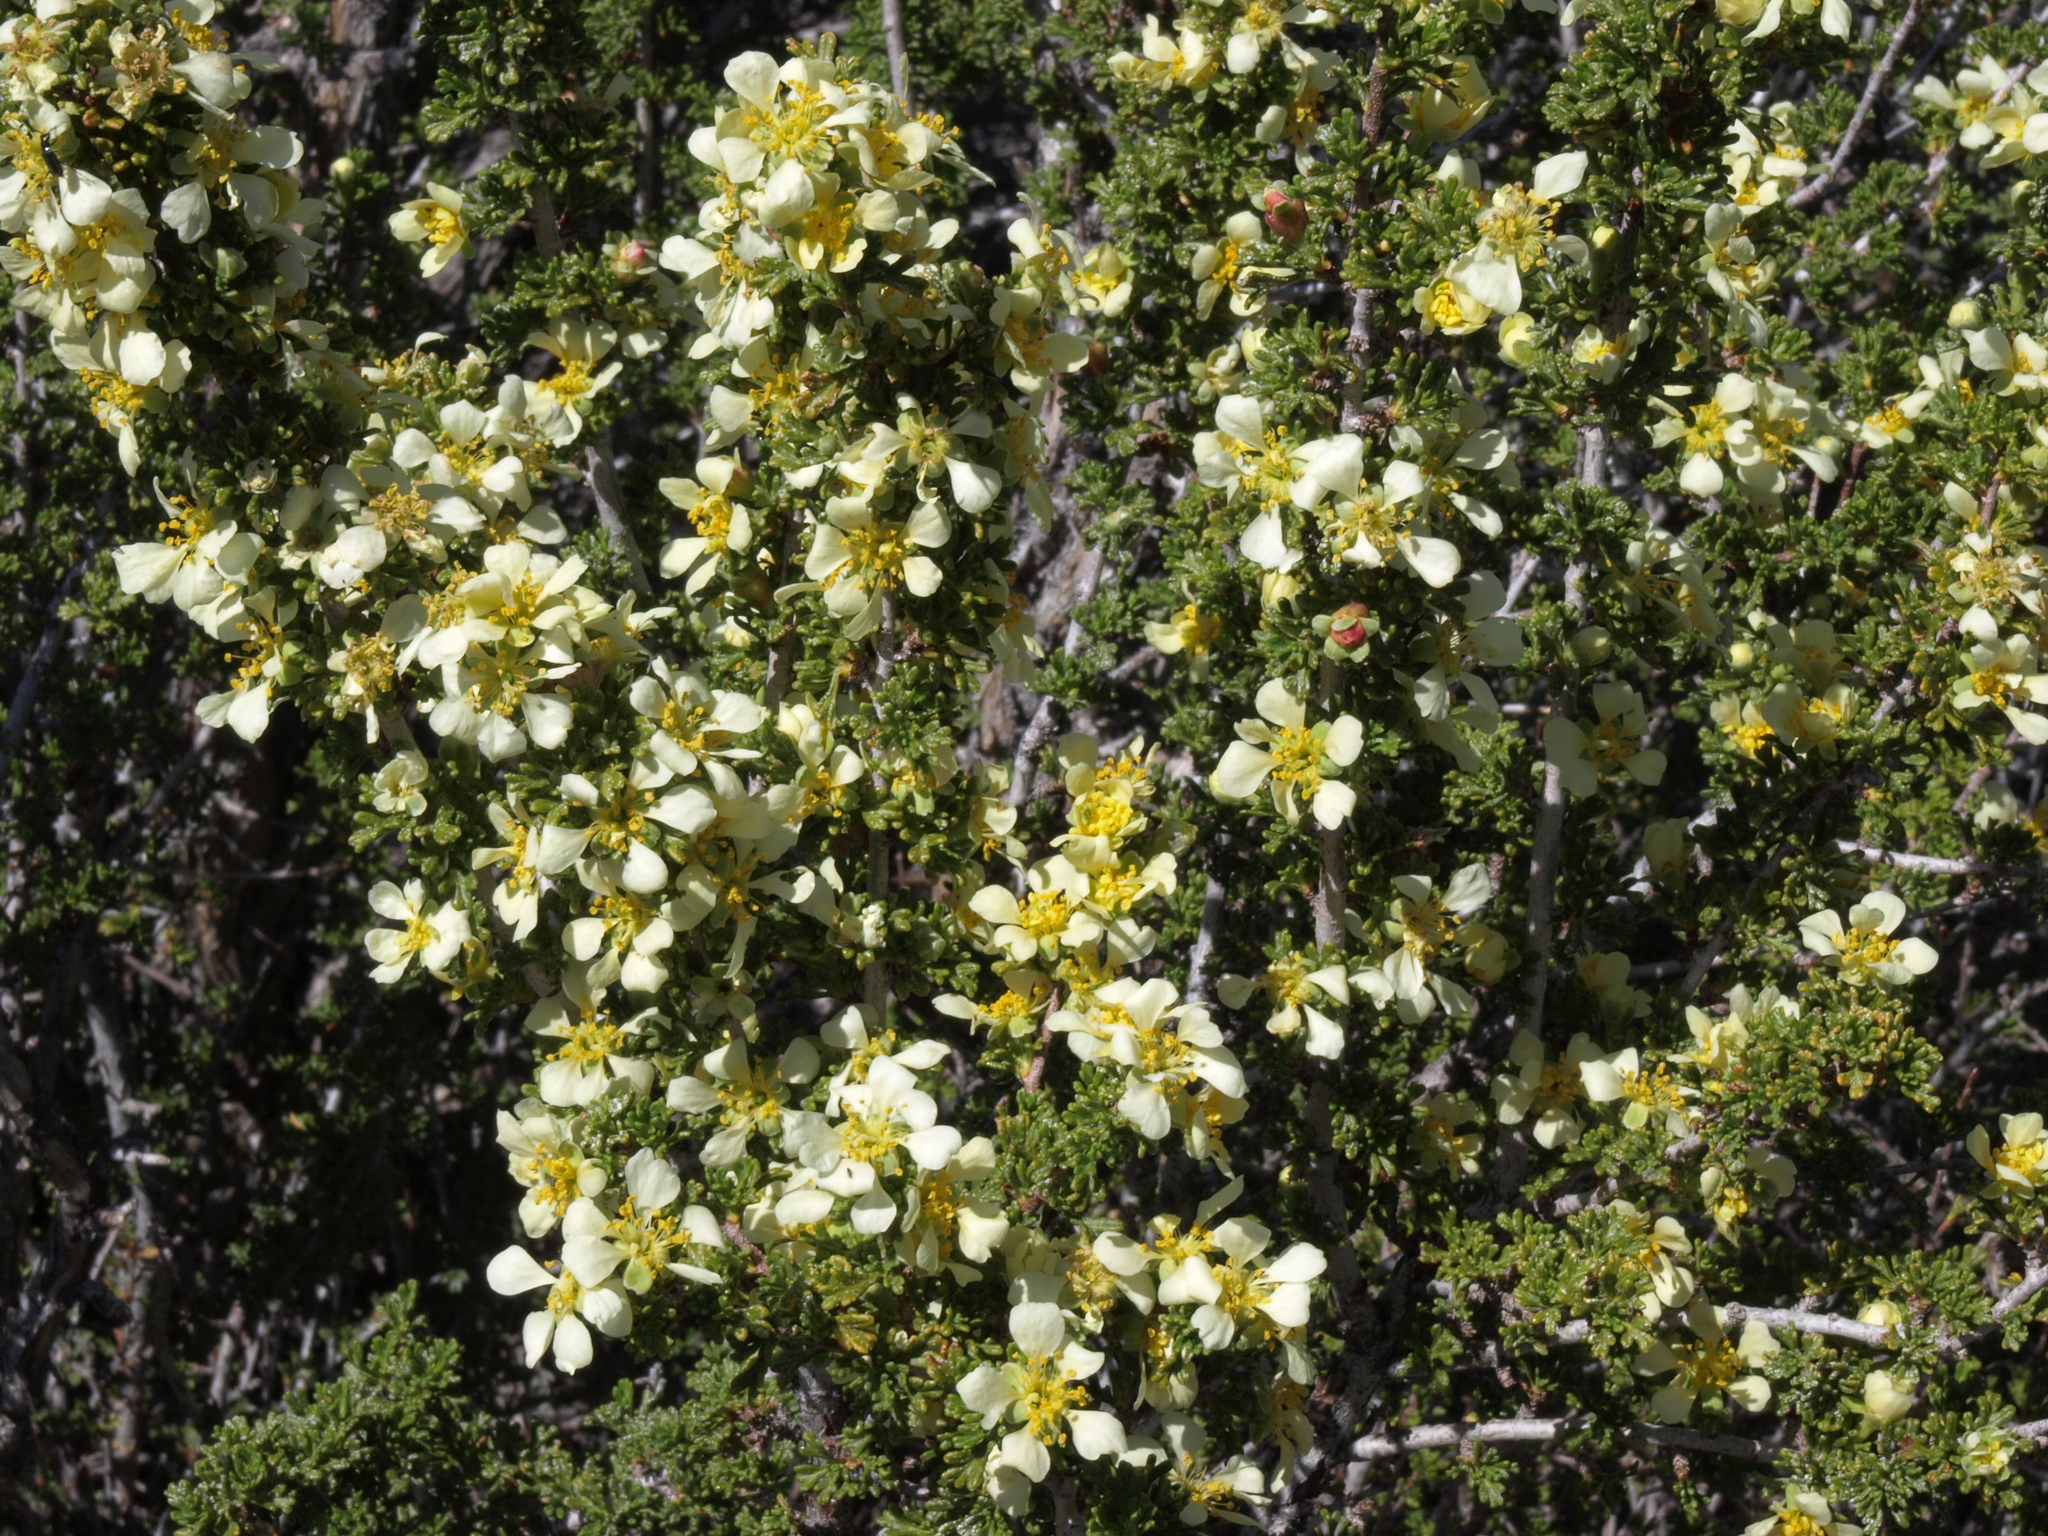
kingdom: Plantae
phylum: Tracheophyta
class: Magnoliopsida
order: Rosales
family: Rosaceae
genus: Purshia
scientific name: Purshia glandulosa
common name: Desert bitterbrush
